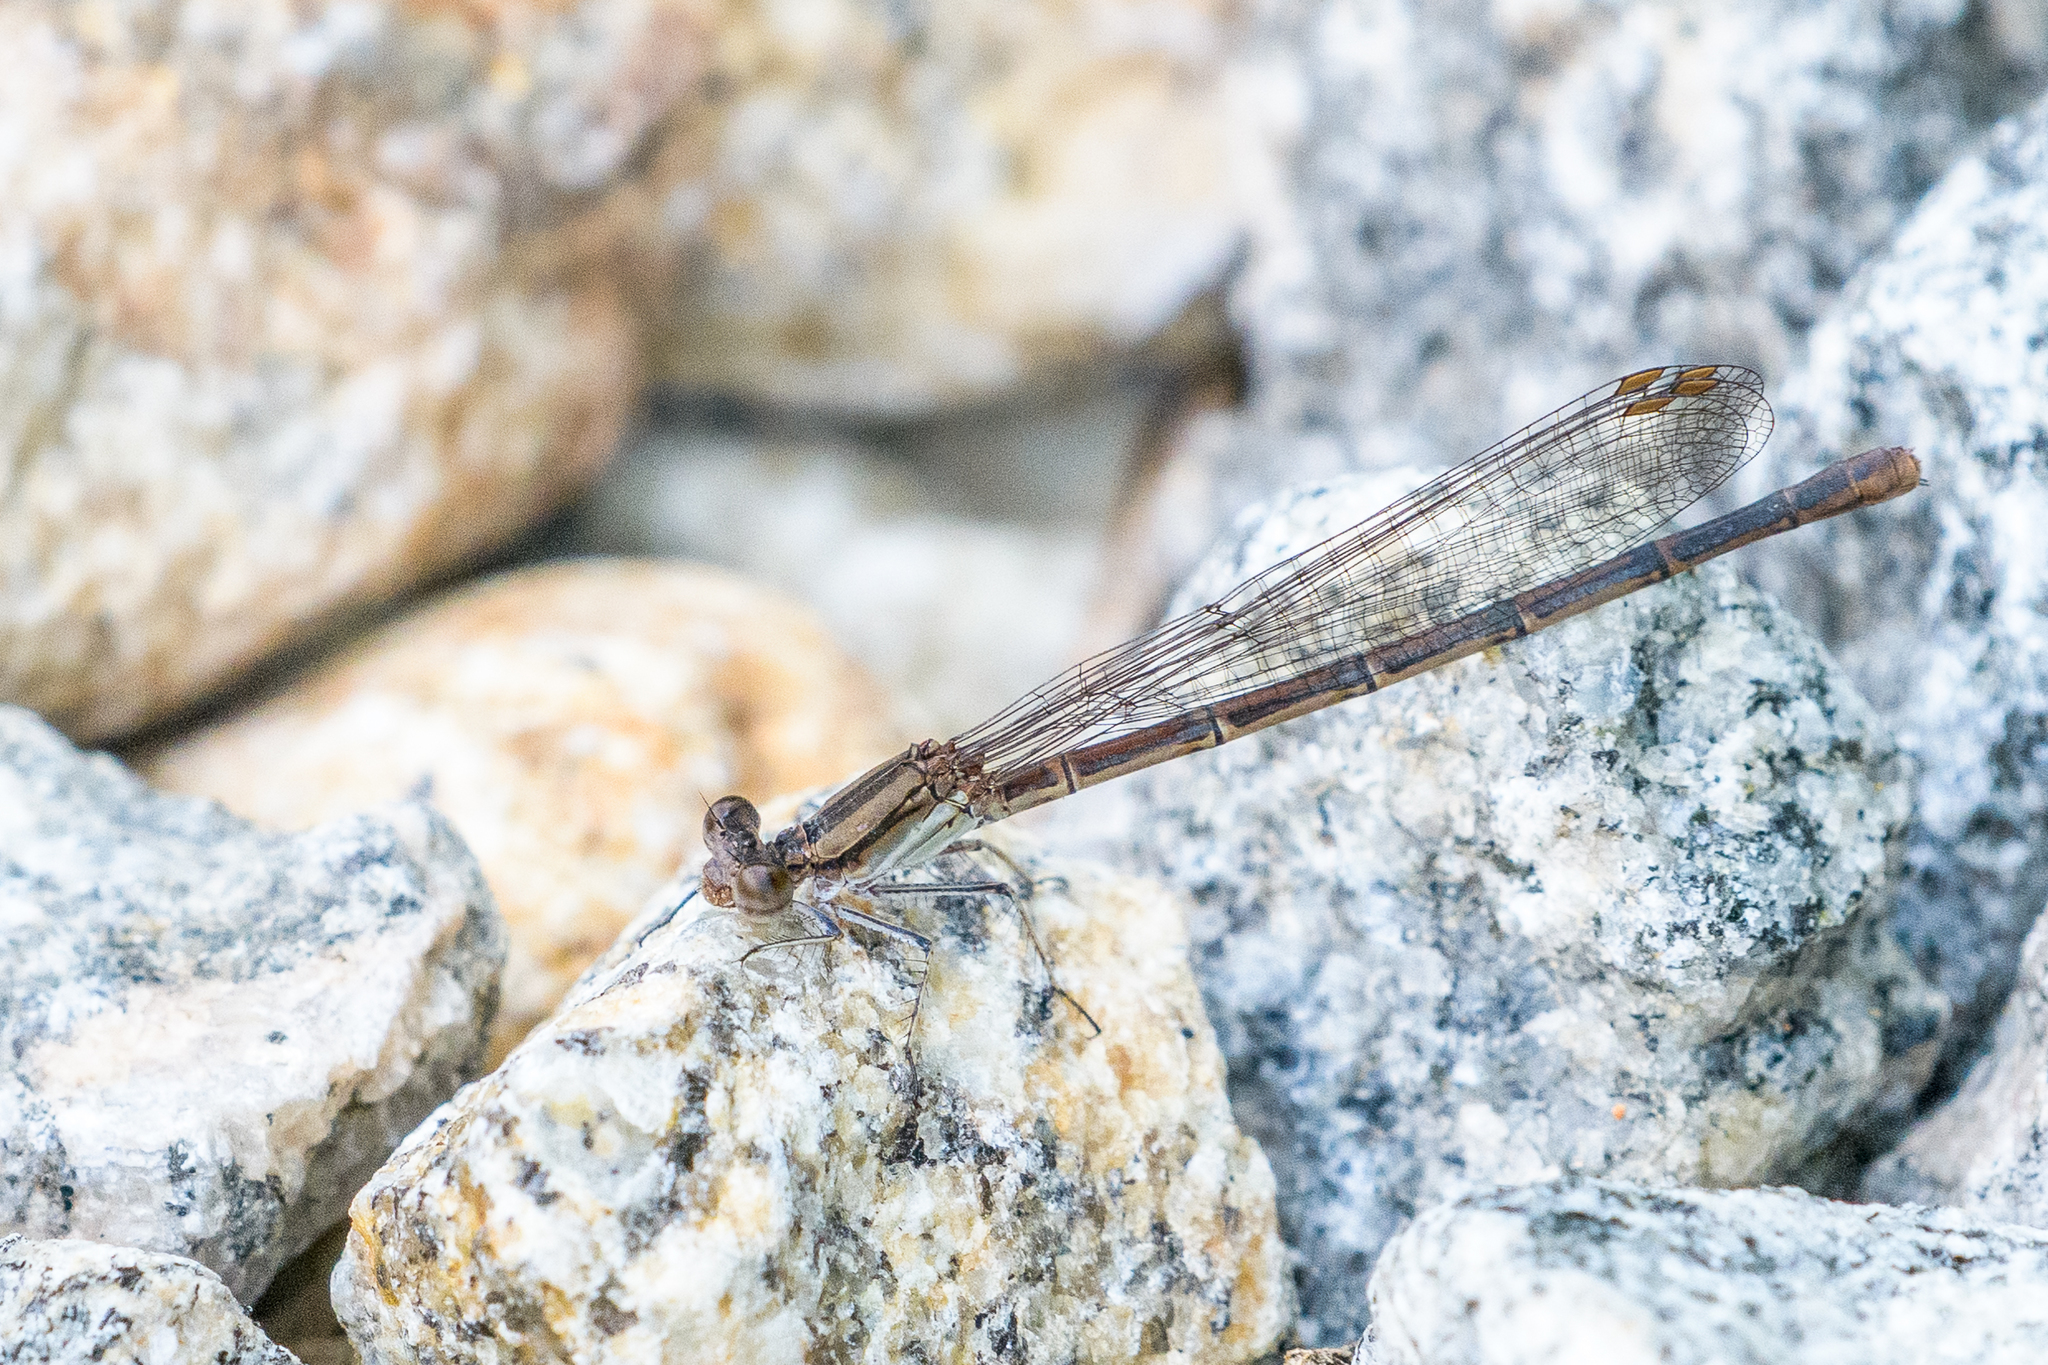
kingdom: Animalia
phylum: Arthropoda
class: Insecta
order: Odonata
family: Coenagrionidae
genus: Argia
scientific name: Argia fumipennis
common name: Variable dancer
